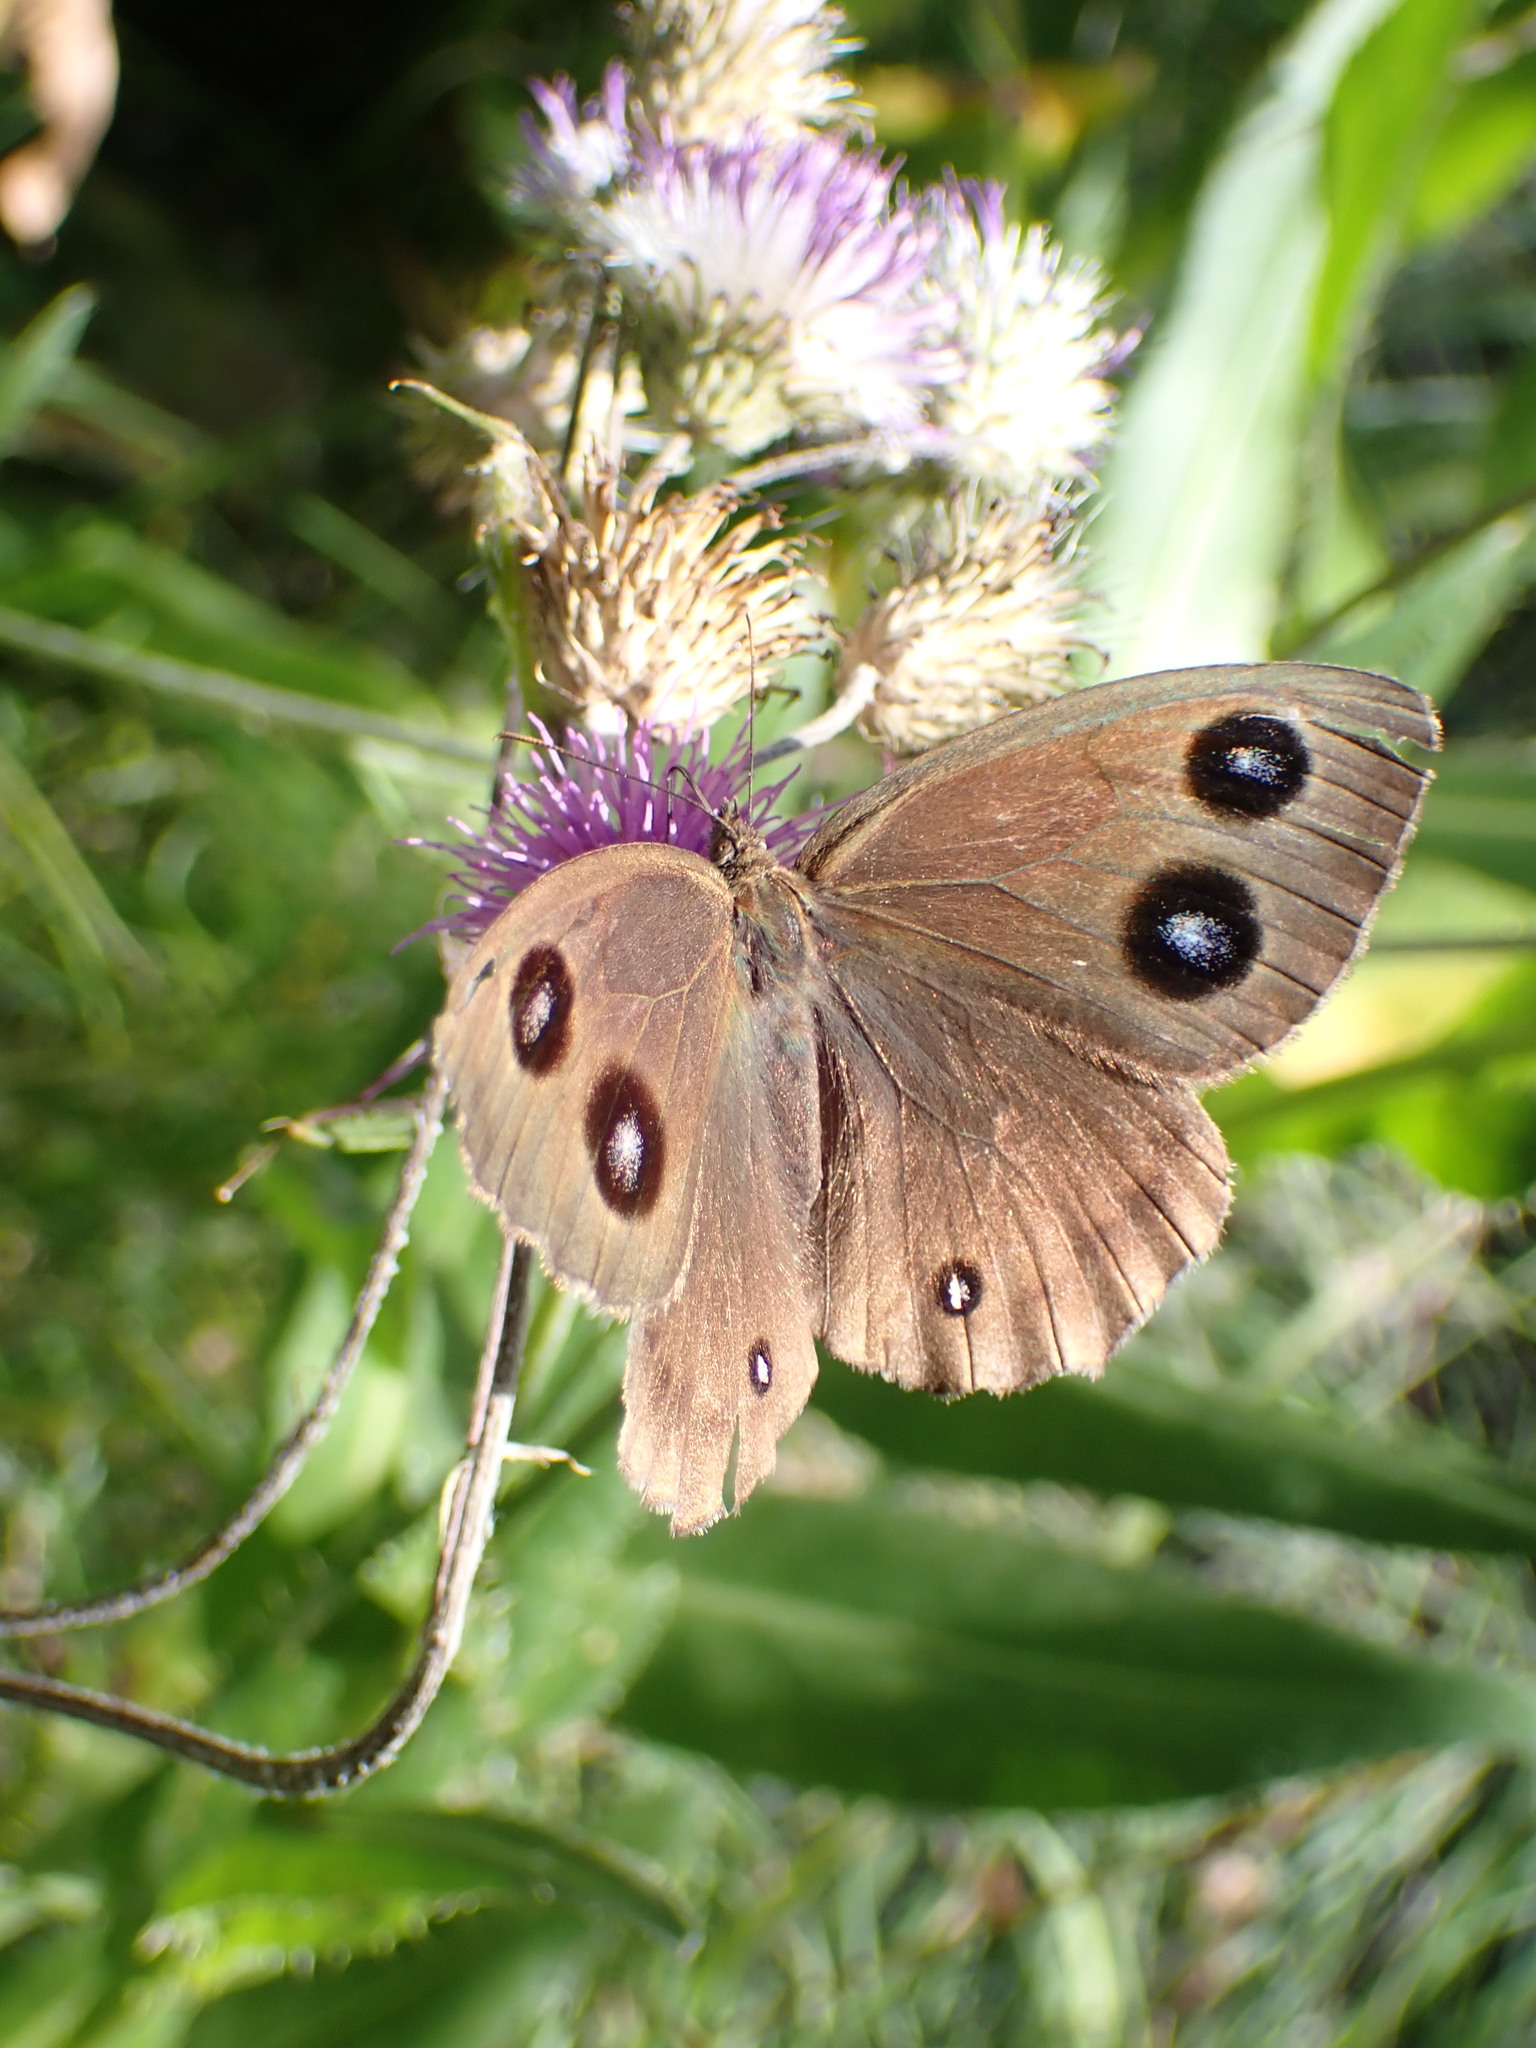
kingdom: Animalia
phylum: Arthropoda
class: Insecta
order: Lepidoptera
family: Nymphalidae
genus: Minois
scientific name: Minois dryas
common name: Dryad
